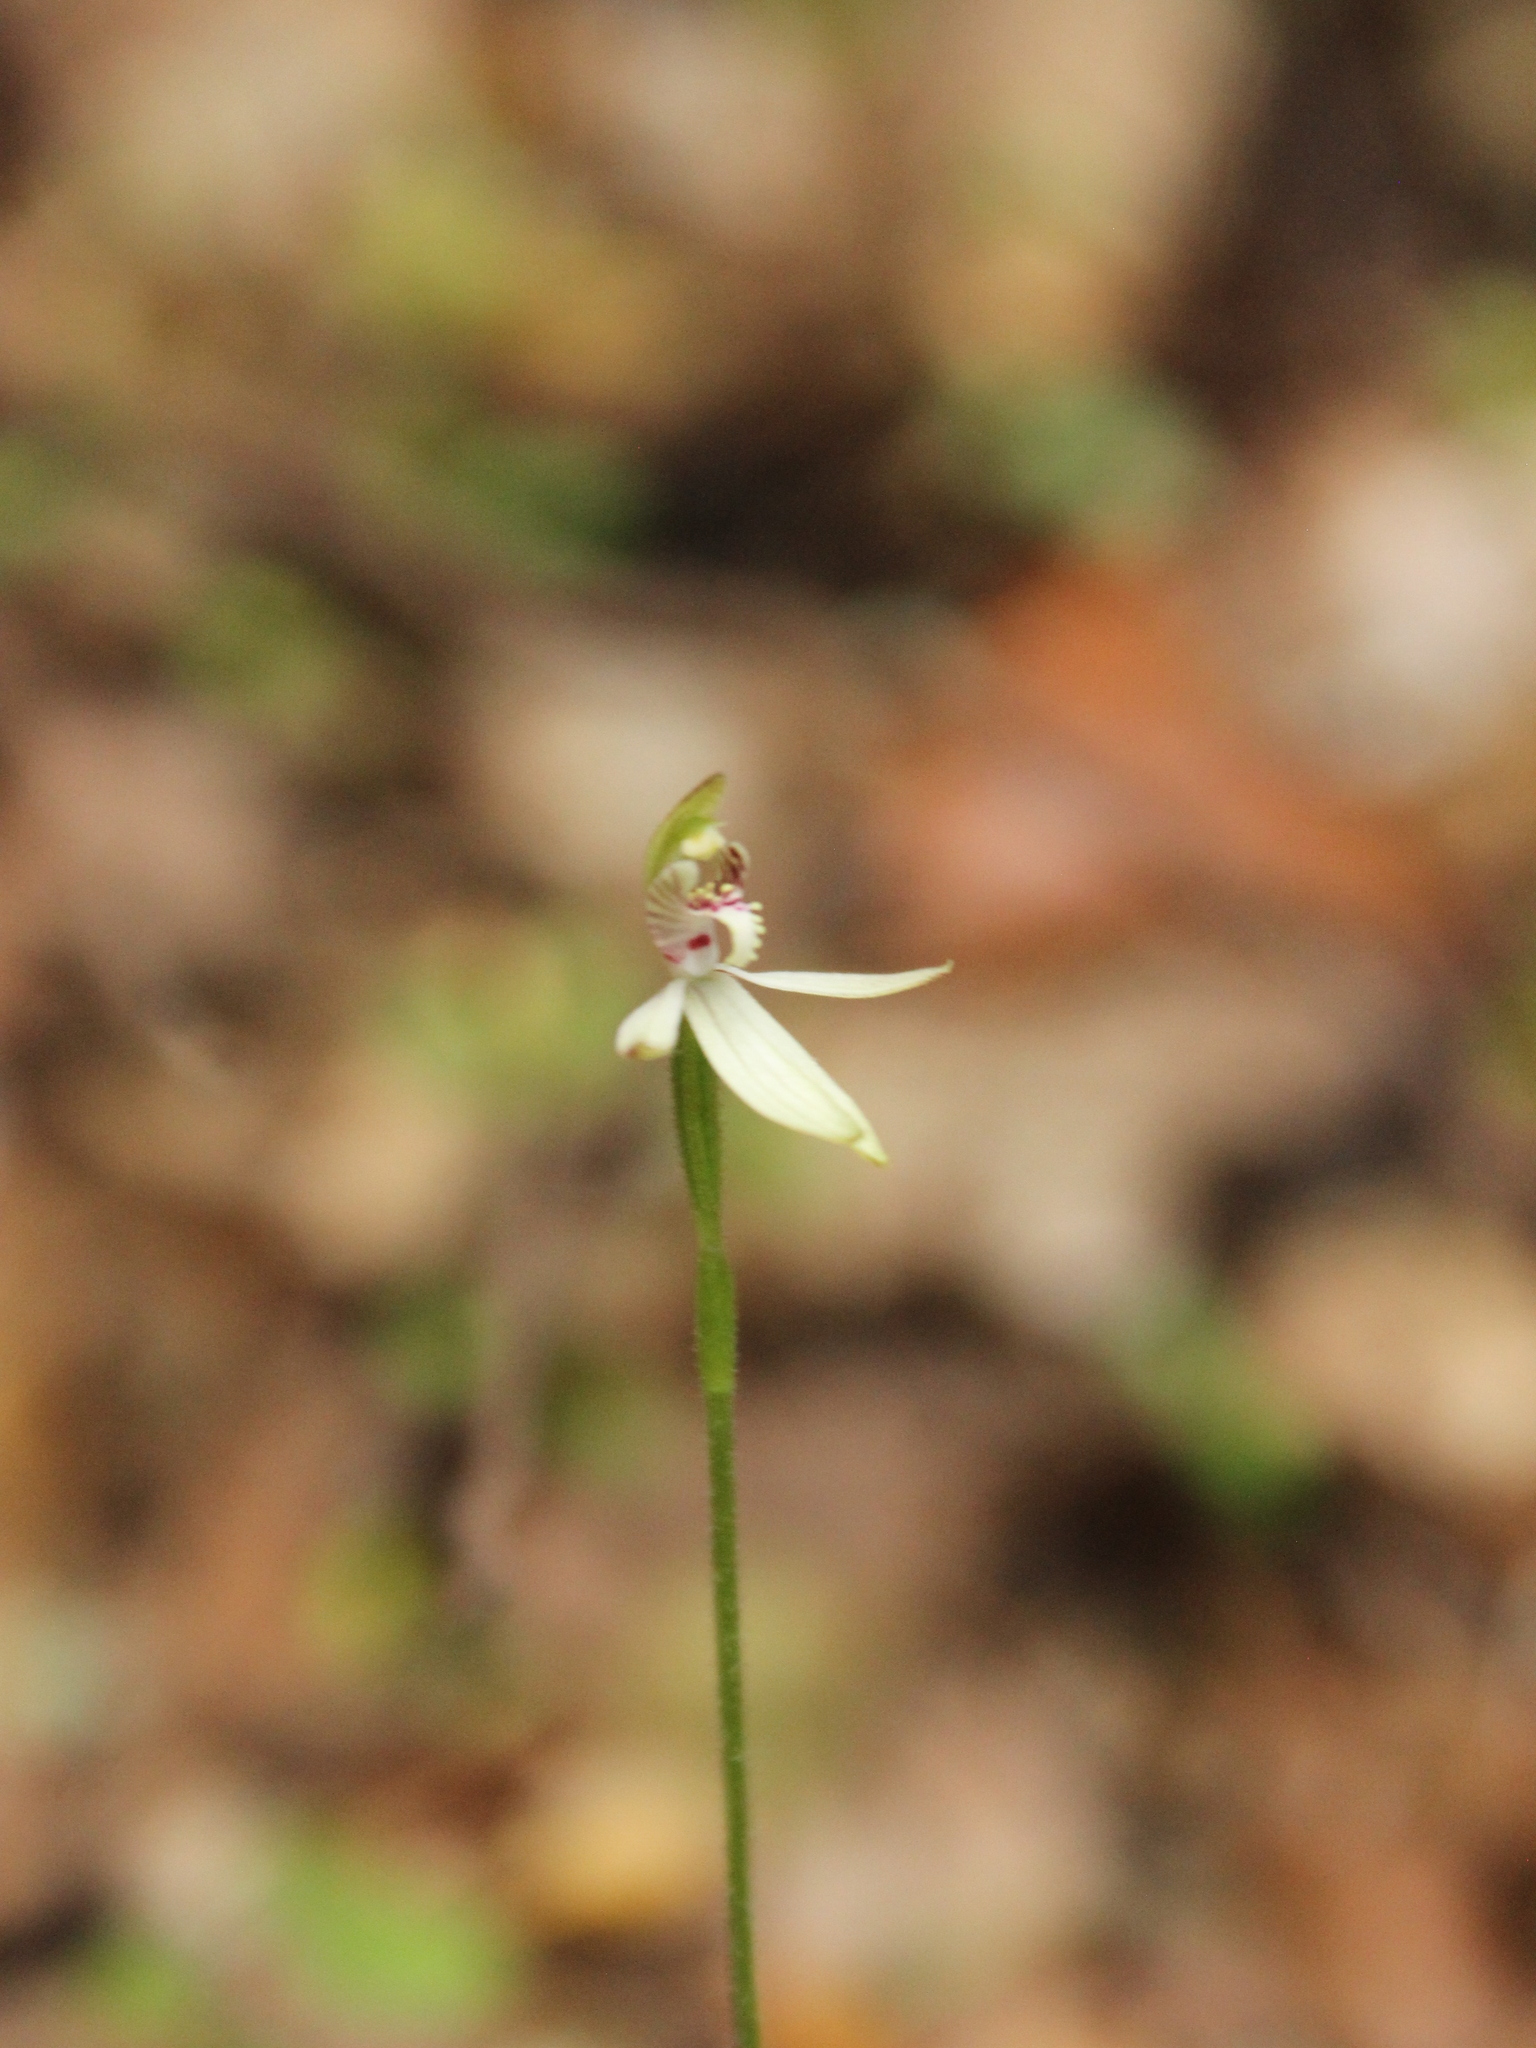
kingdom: Plantae
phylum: Tracheophyta
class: Liliopsida
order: Asparagales
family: Orchidaceae
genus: Caladenia
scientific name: Caladenia chlorostyla
